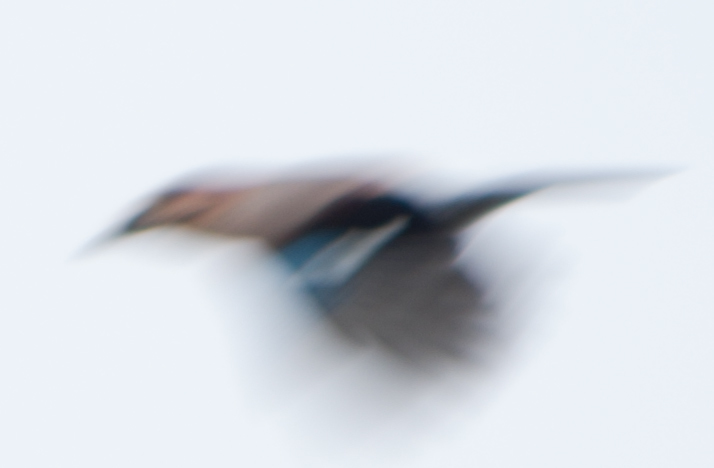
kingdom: Animalia
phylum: Chordata
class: Aves
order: Passeriformes
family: Corvidae
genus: Garrulus
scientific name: Garrulus glandarius
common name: Eurasian jay
